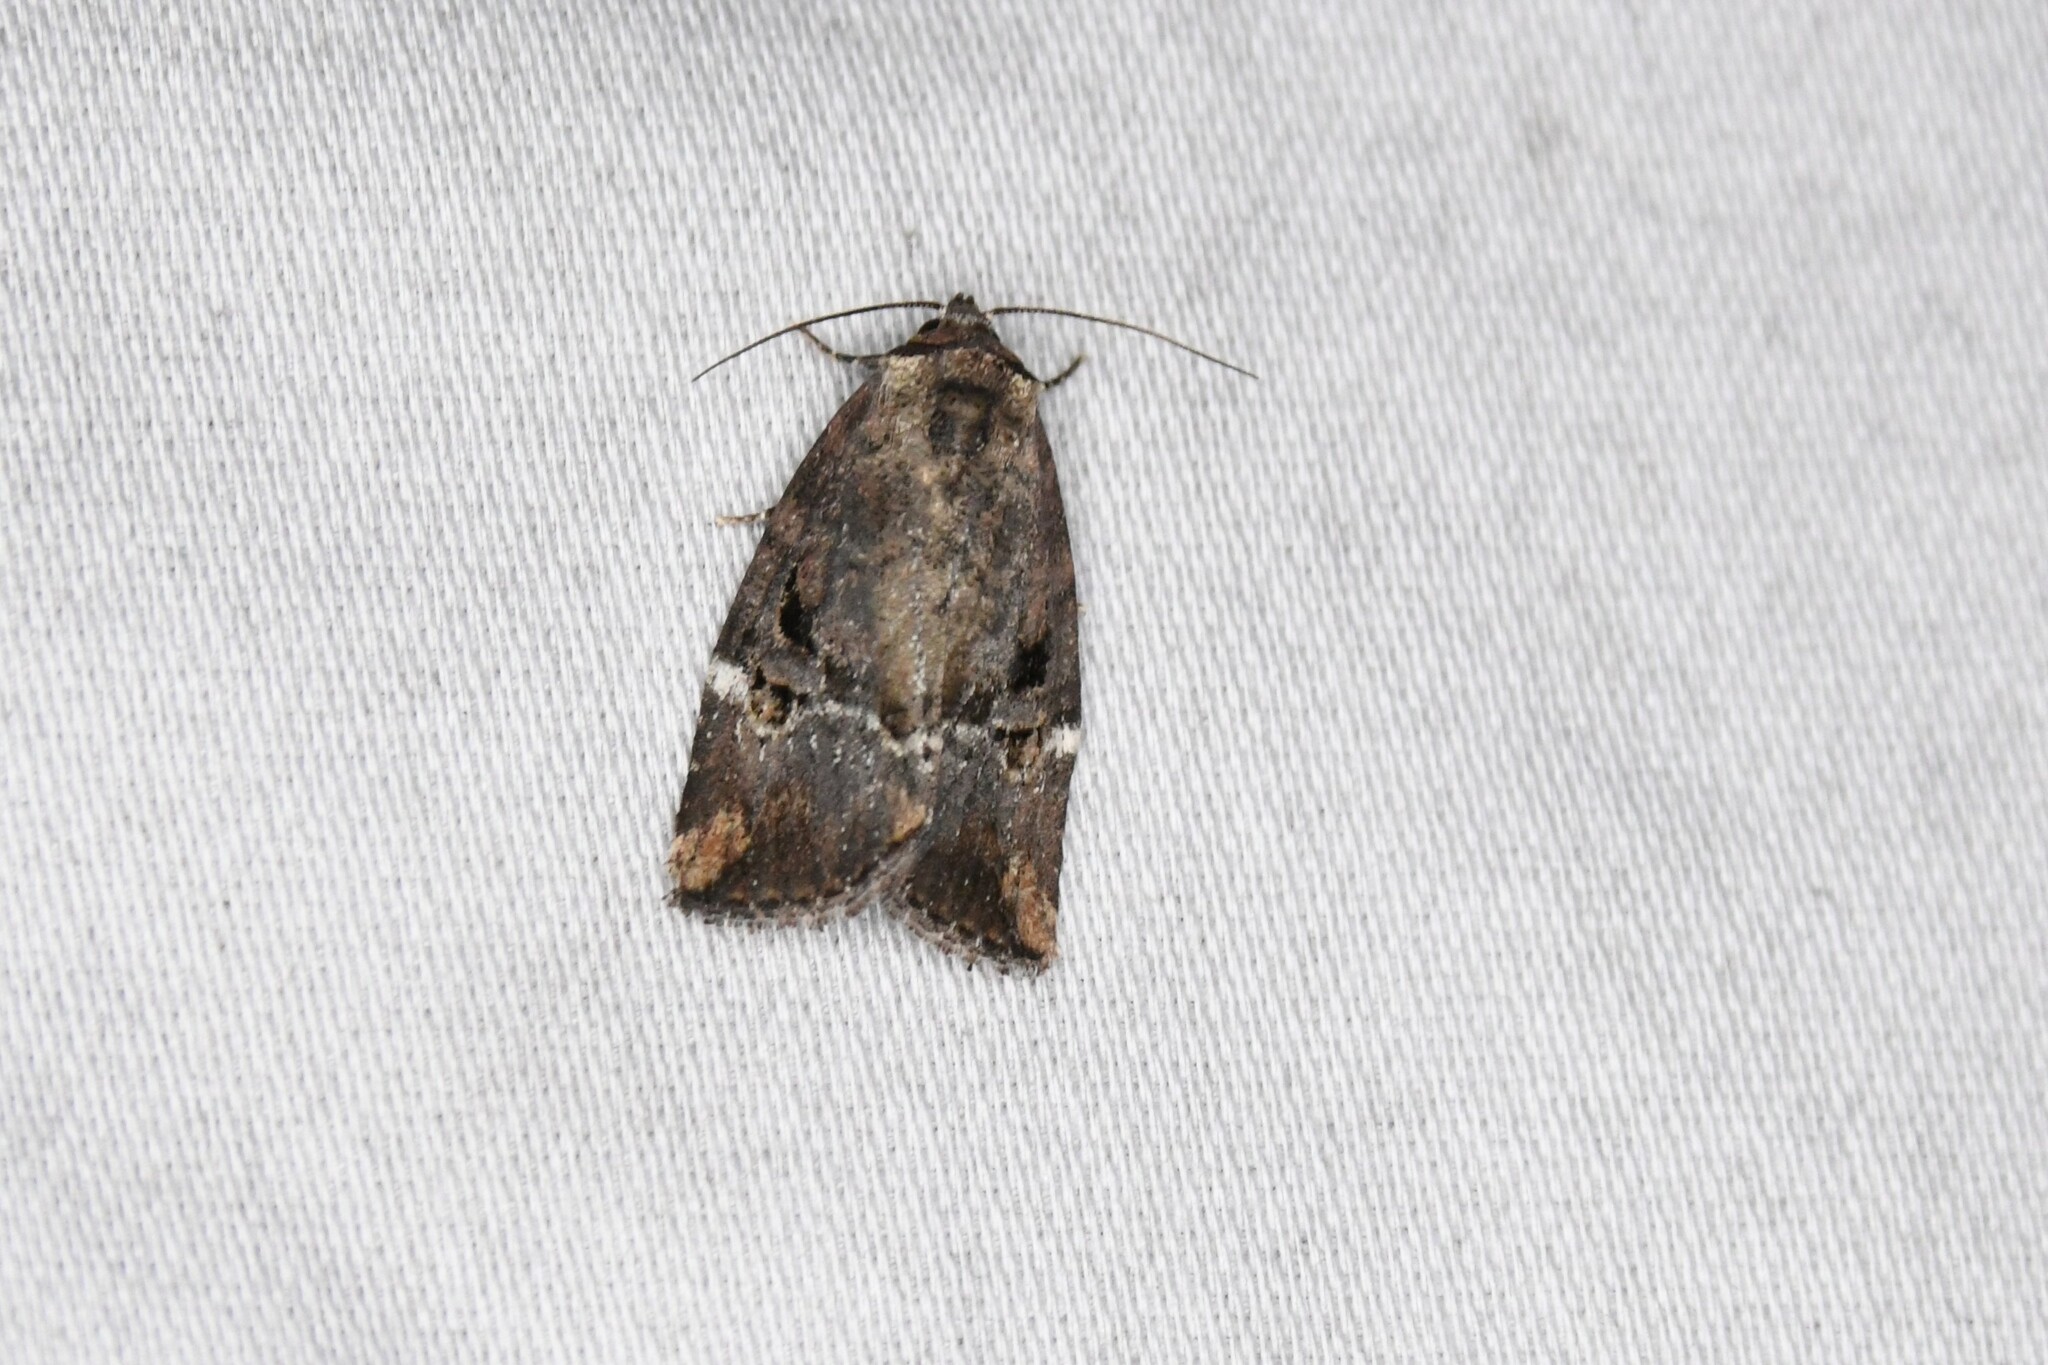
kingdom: Animalia
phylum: Arthropoda
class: Insecta
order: Lepidoptera
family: Noctuidae
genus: Elaphria
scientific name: Elaphria versicolor
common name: Fir harlequin
